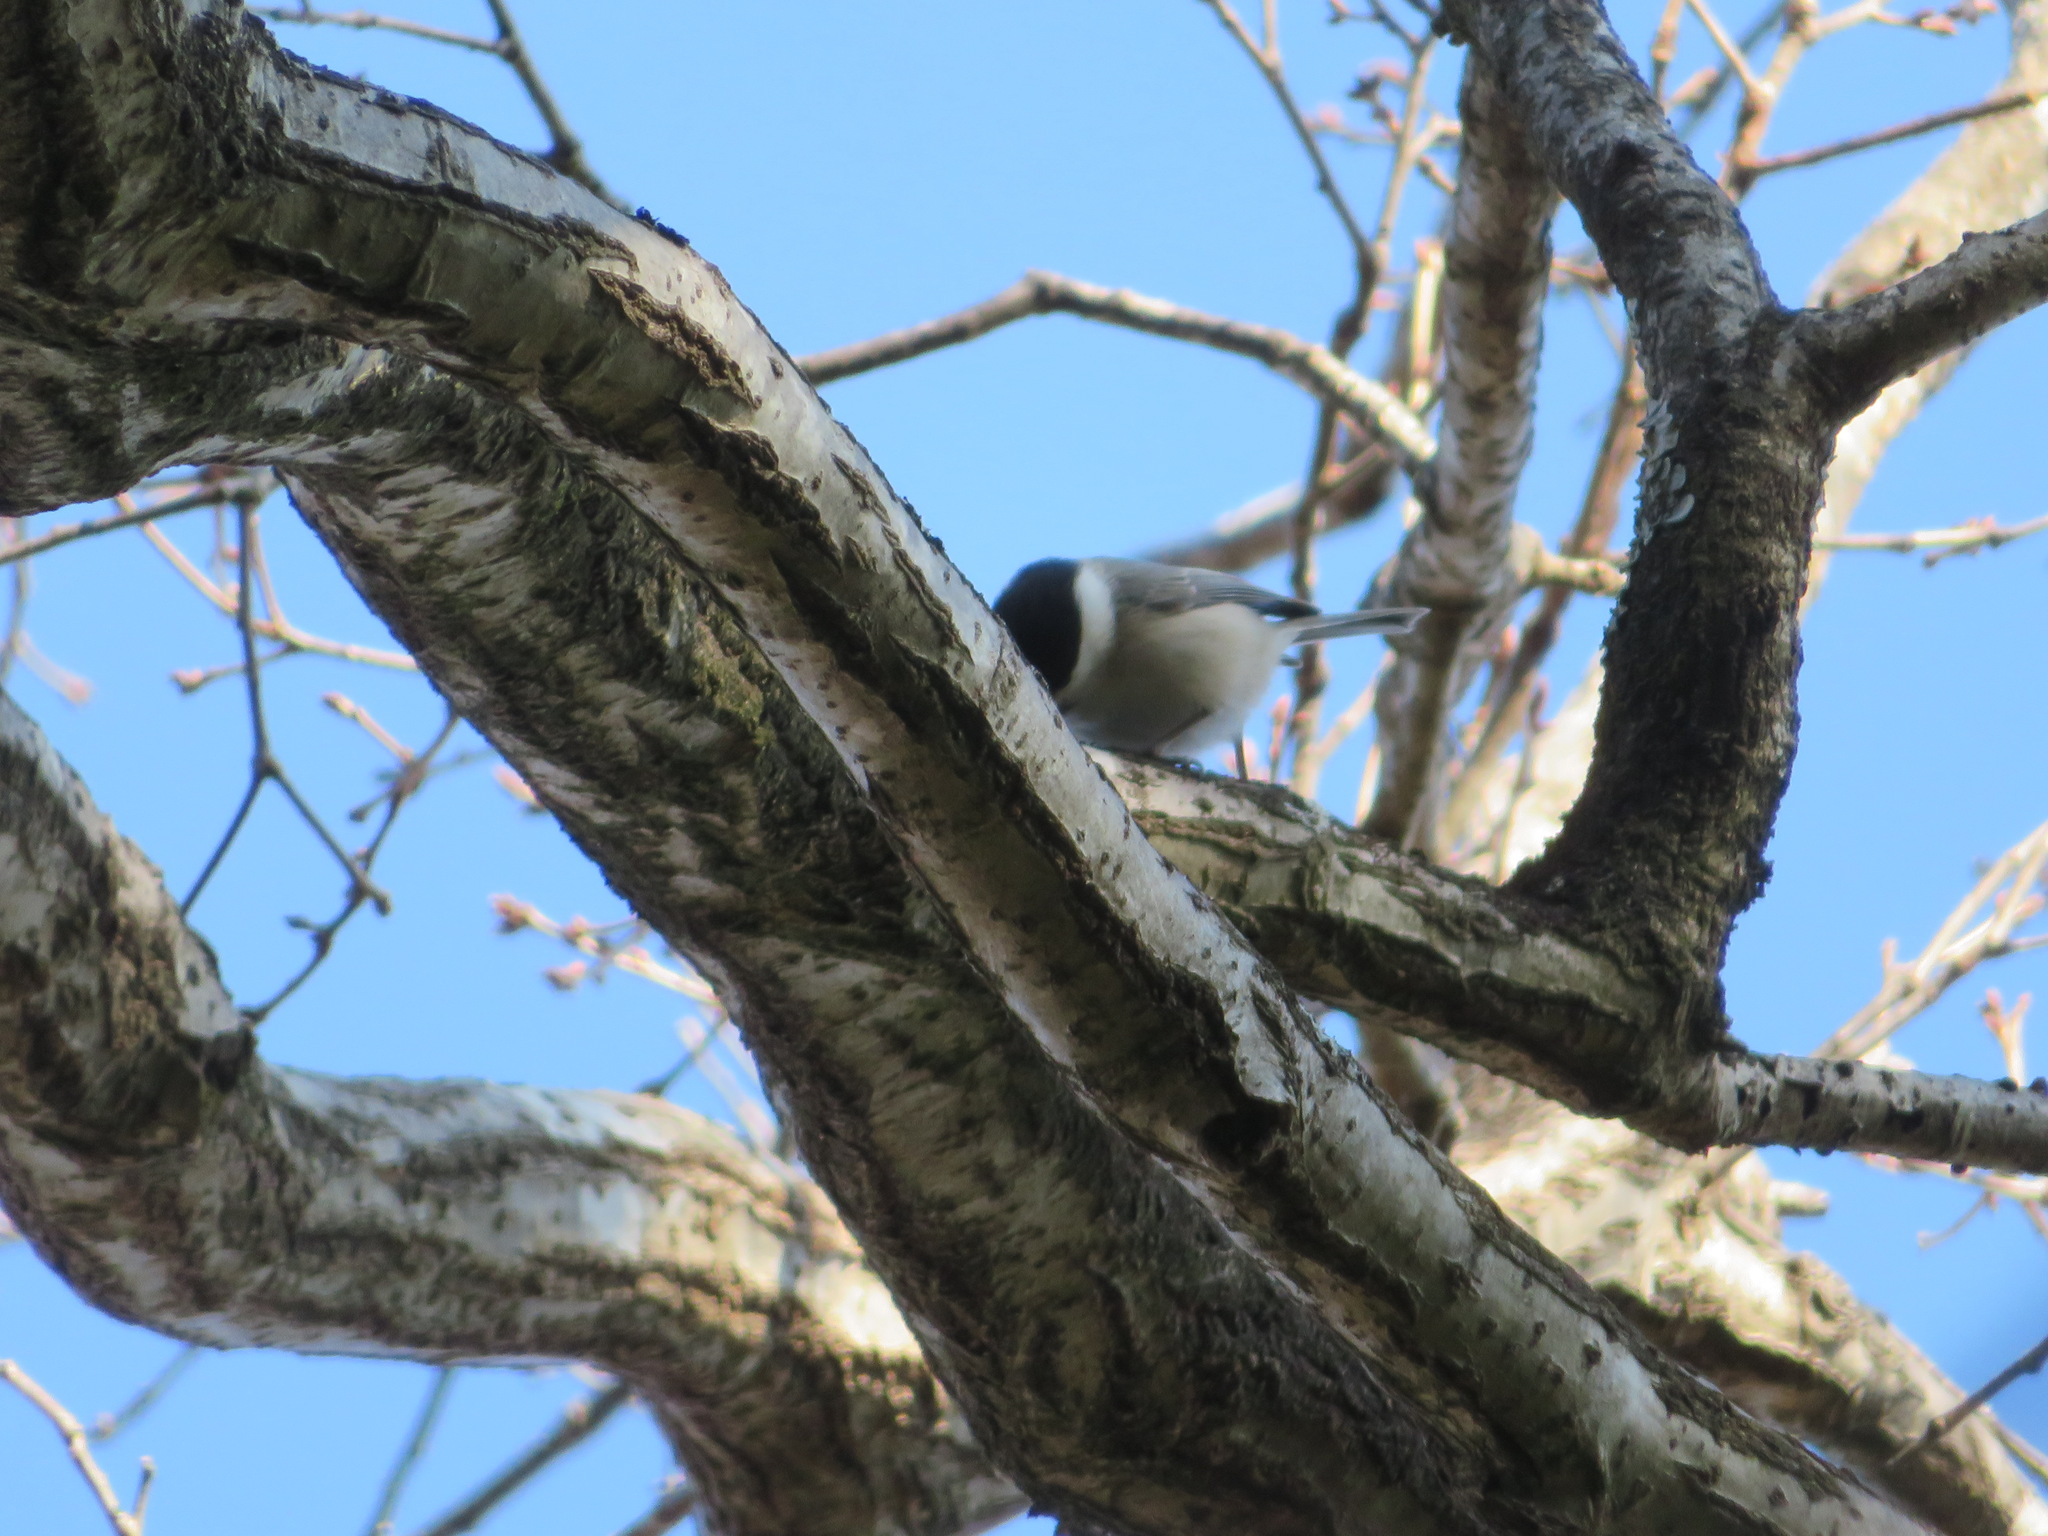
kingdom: Animalia
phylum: Chordata
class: Aves
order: Passeriformes
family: Paridae
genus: Poecile
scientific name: Poecile montanus
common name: Willow tit
